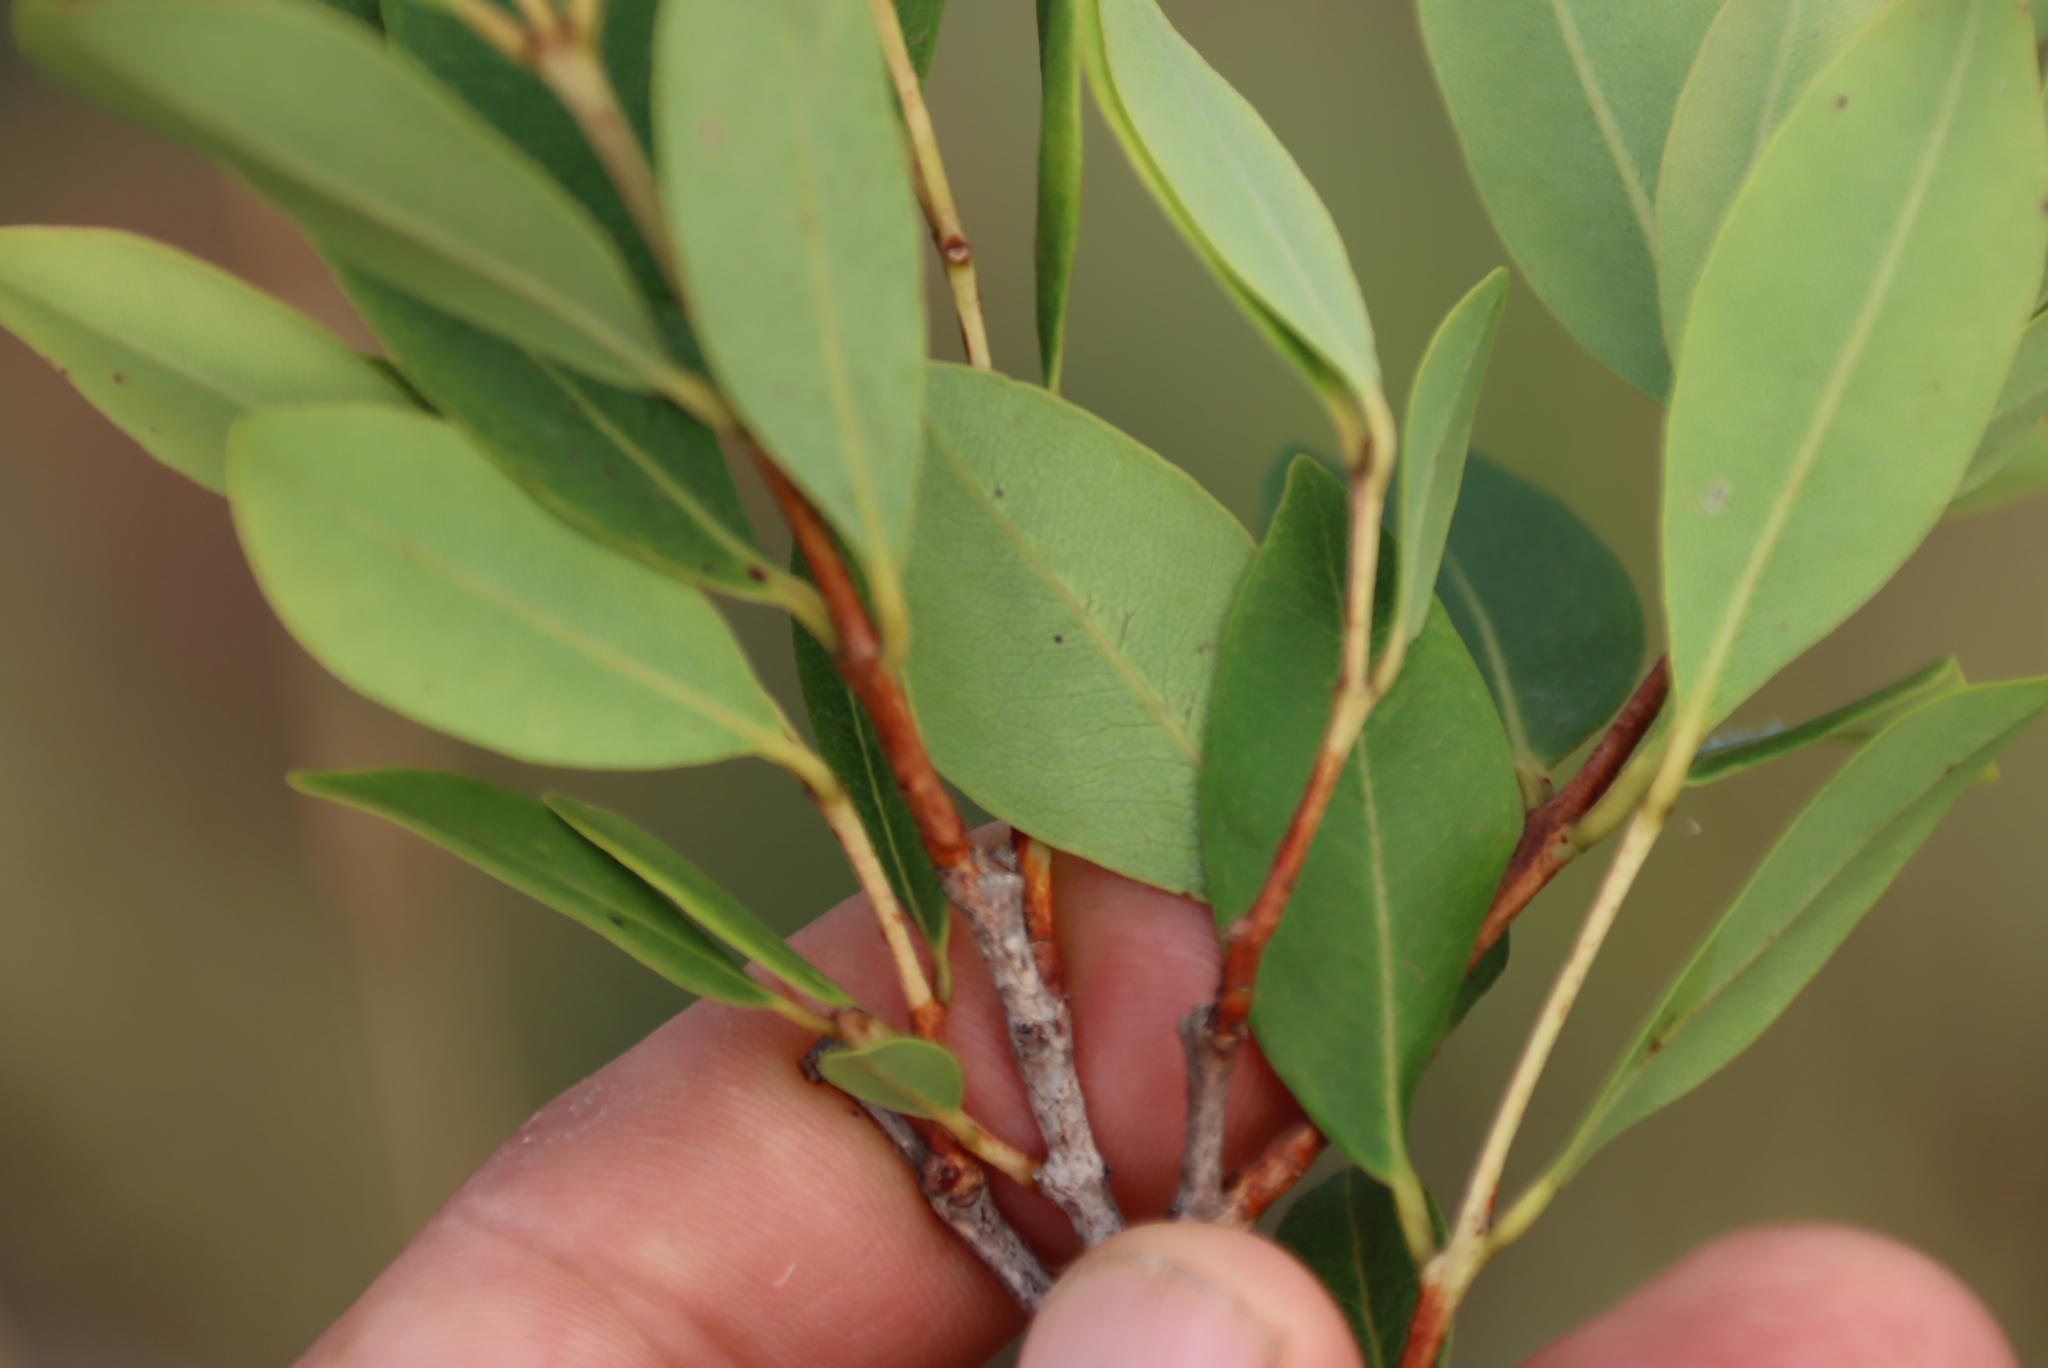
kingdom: Plantae
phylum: Tracheophyta
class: Magnoliopsida
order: Myrtales
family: Myrtaceae
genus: Syzygium
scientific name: Syzygium legatii
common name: Mountain waterberry
